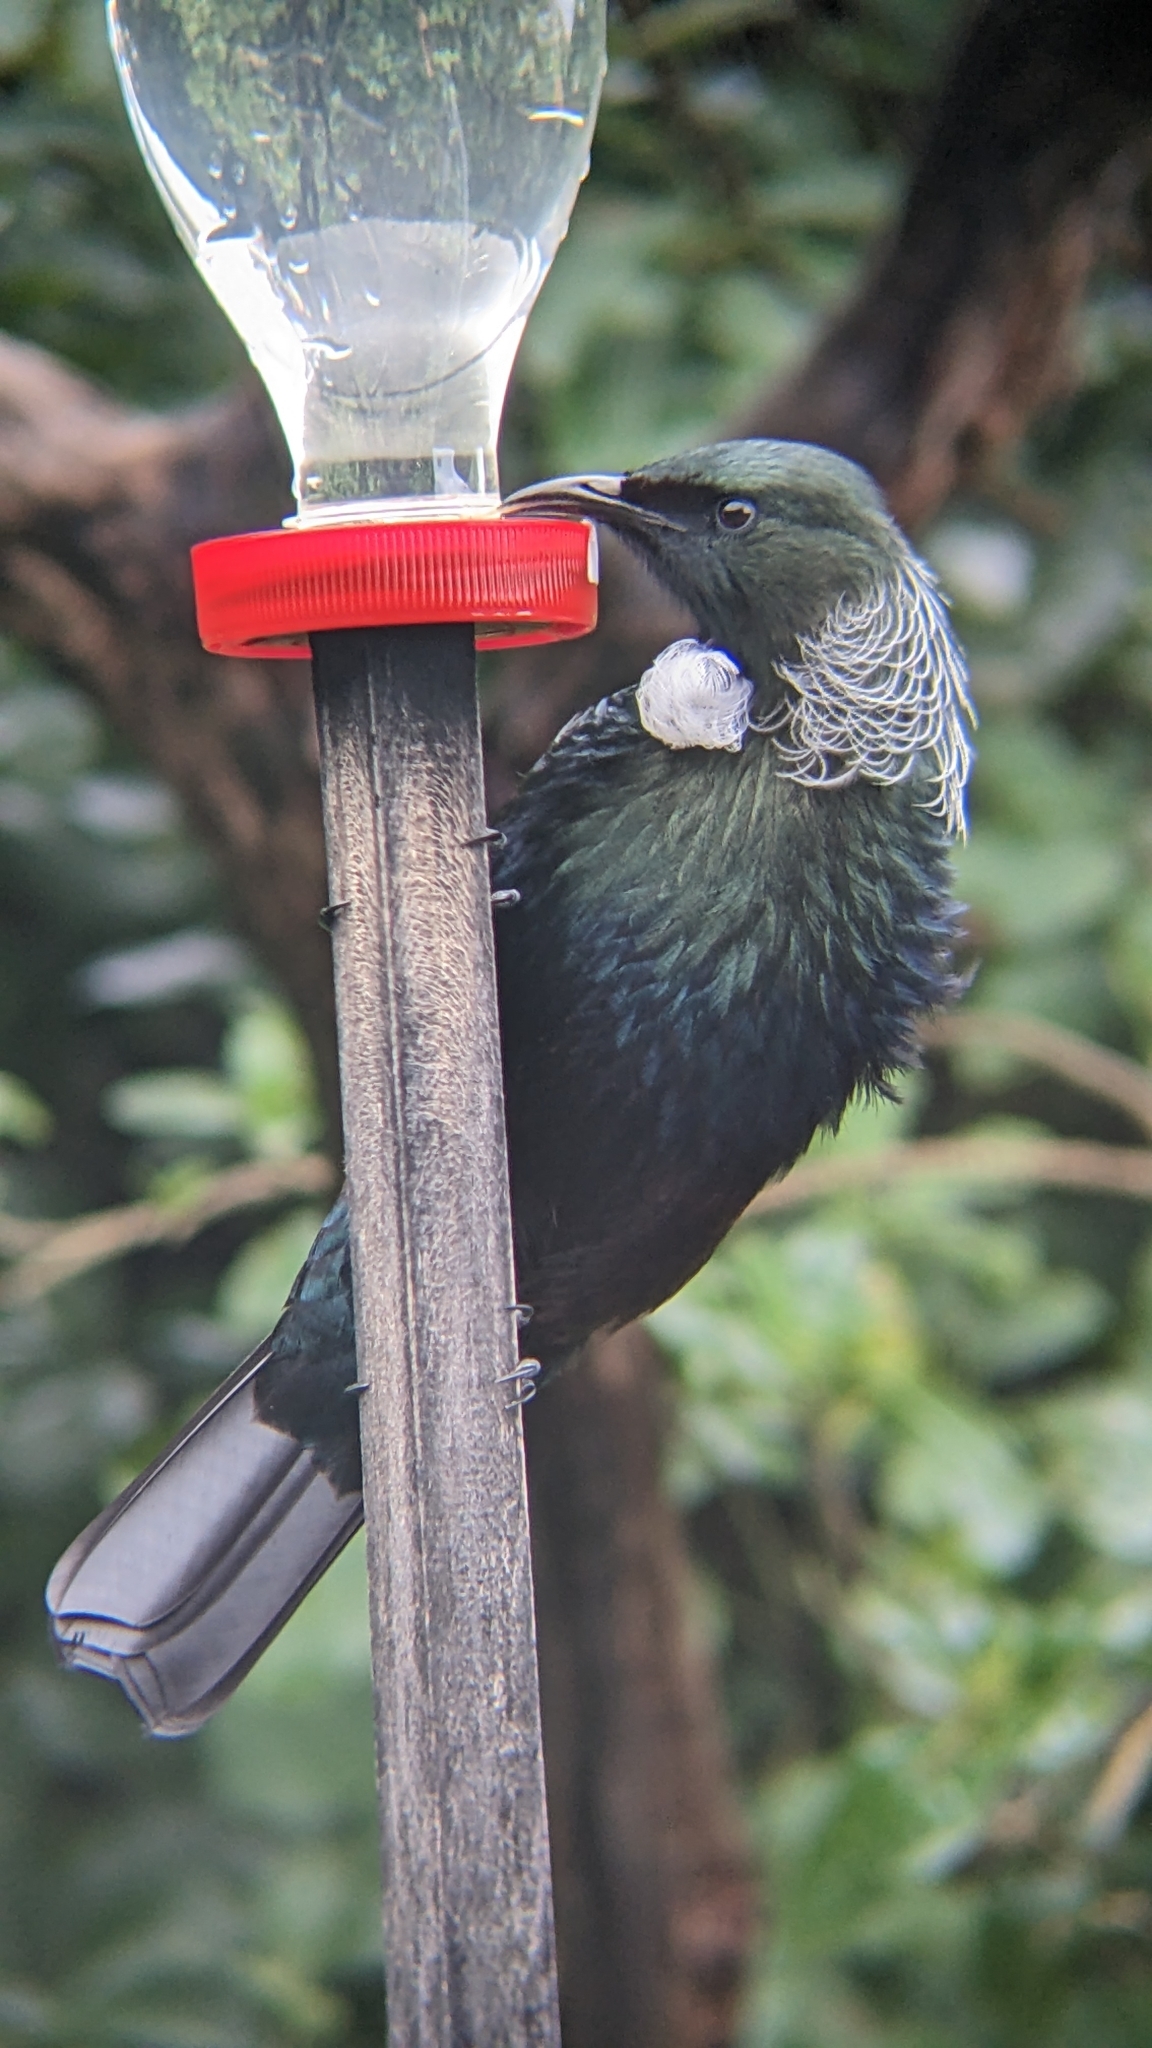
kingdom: Animalia
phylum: Chordata
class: Aves
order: Passeriformes
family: Meliphagidae
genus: Prosthemadera
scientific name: Prosthemadera novaeseelandiae
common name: Tui
